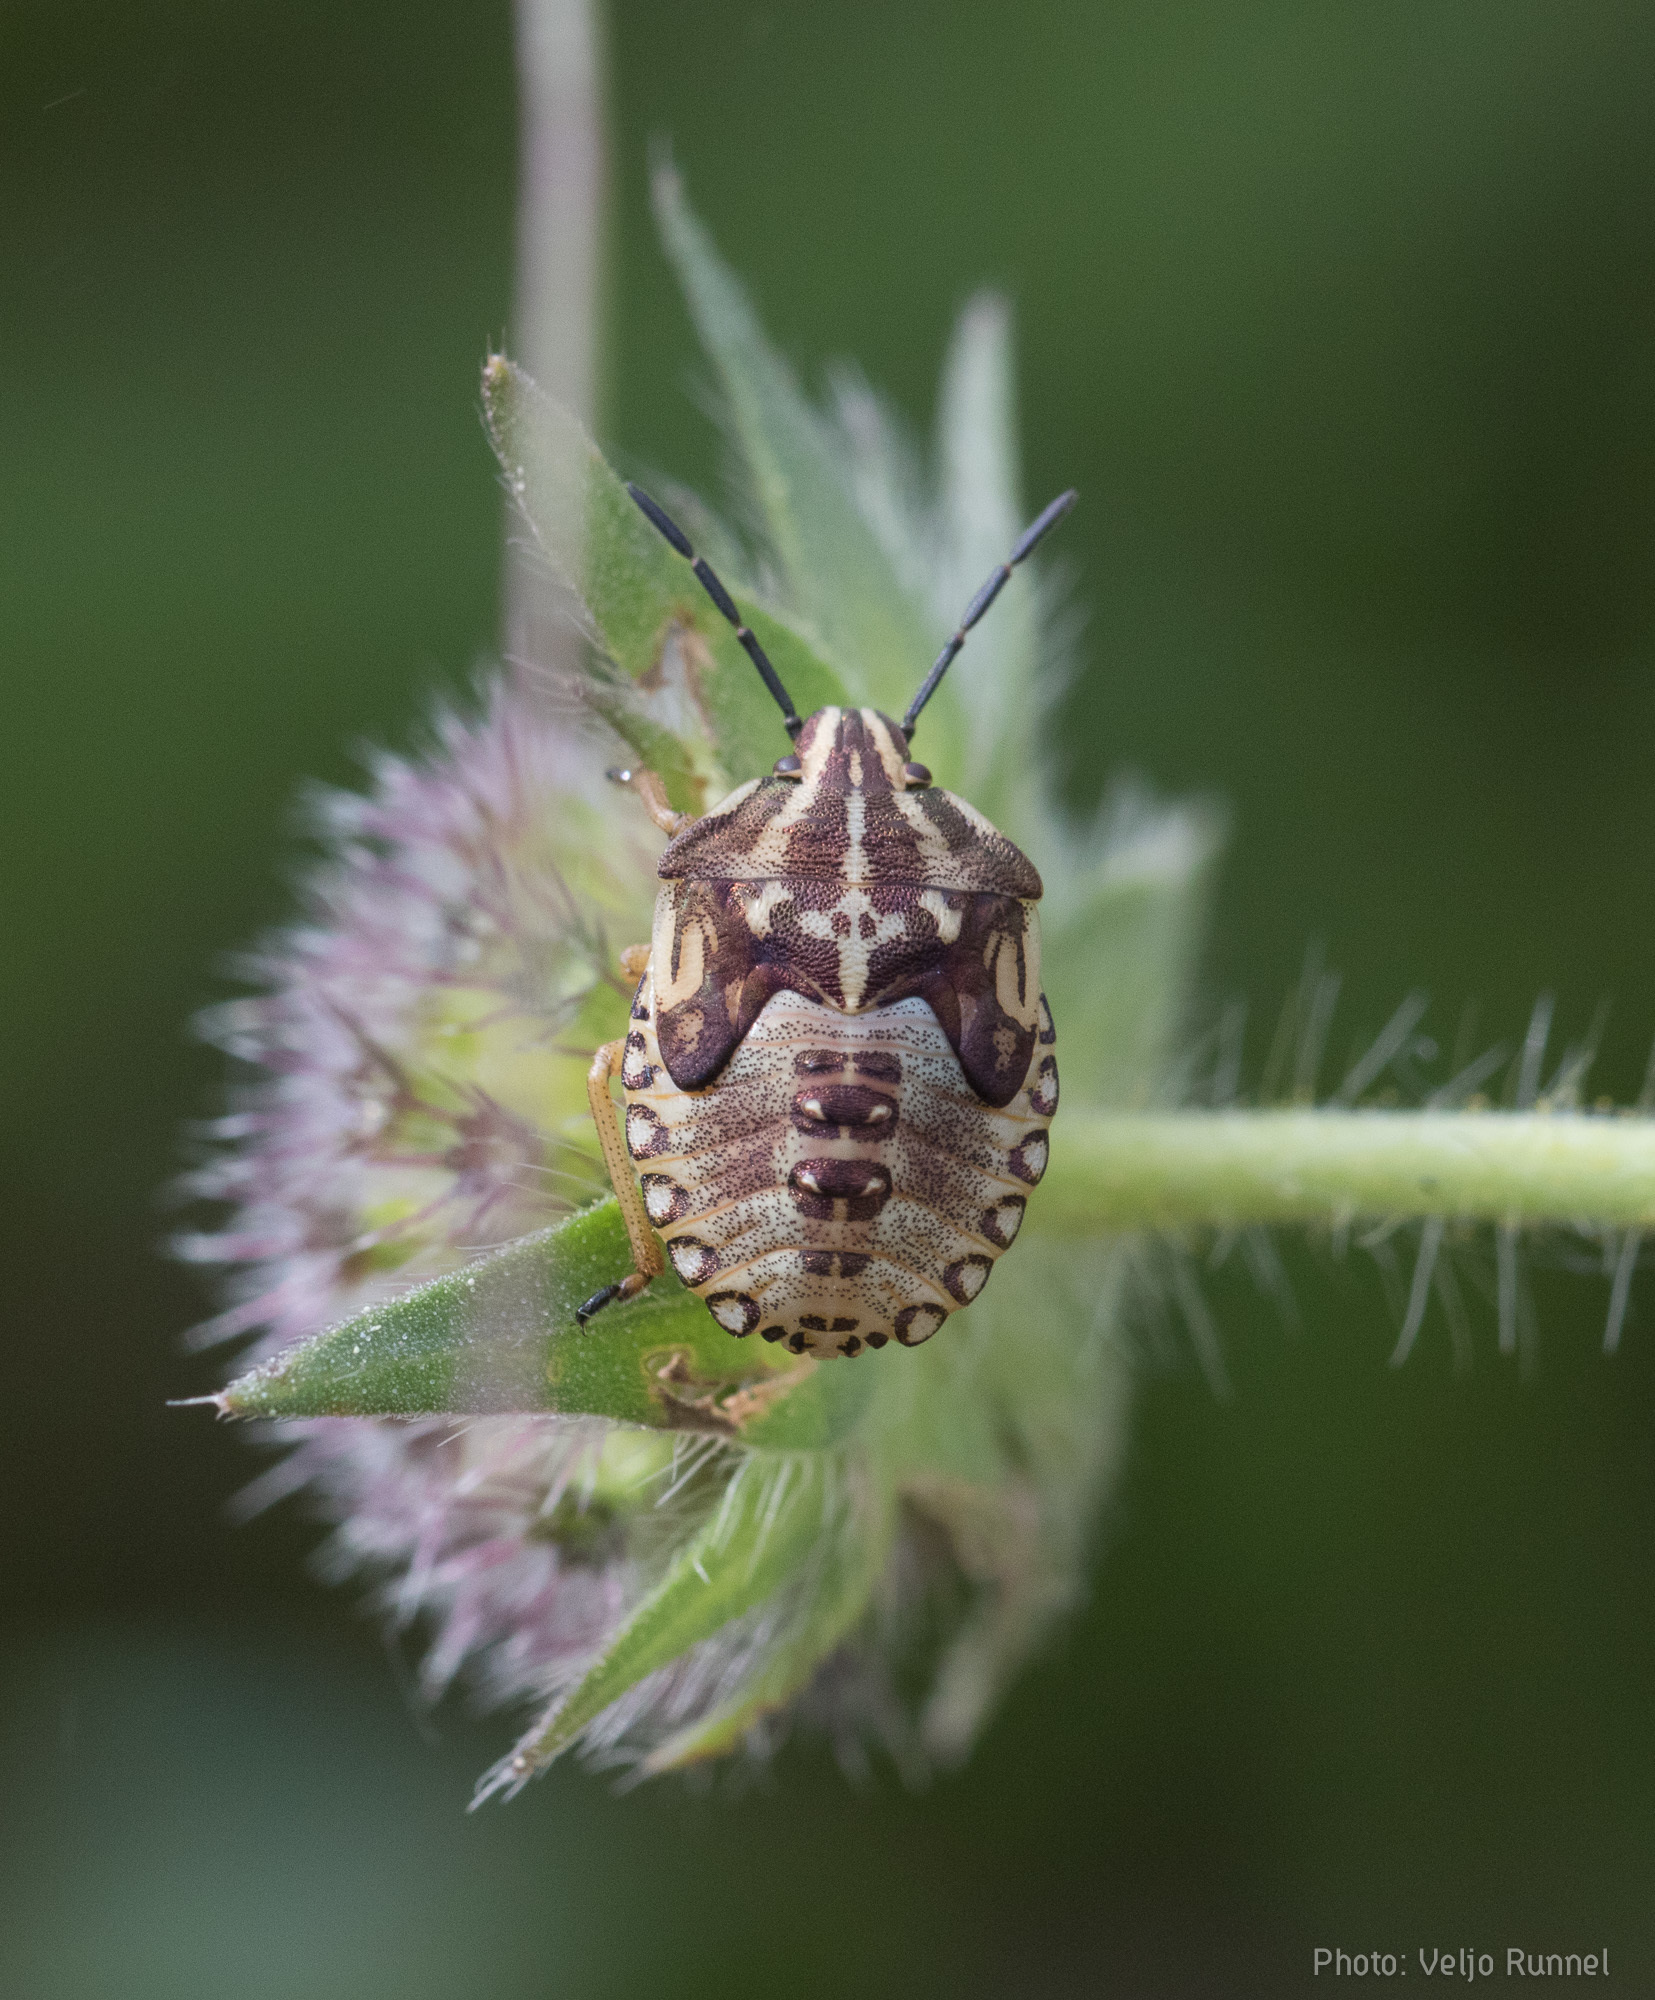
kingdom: Animalia
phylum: Arthropoda
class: Insecta
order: Hemiptera
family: Pentatomidae
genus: Carpocoris
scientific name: Carpocoris purpureipennis
